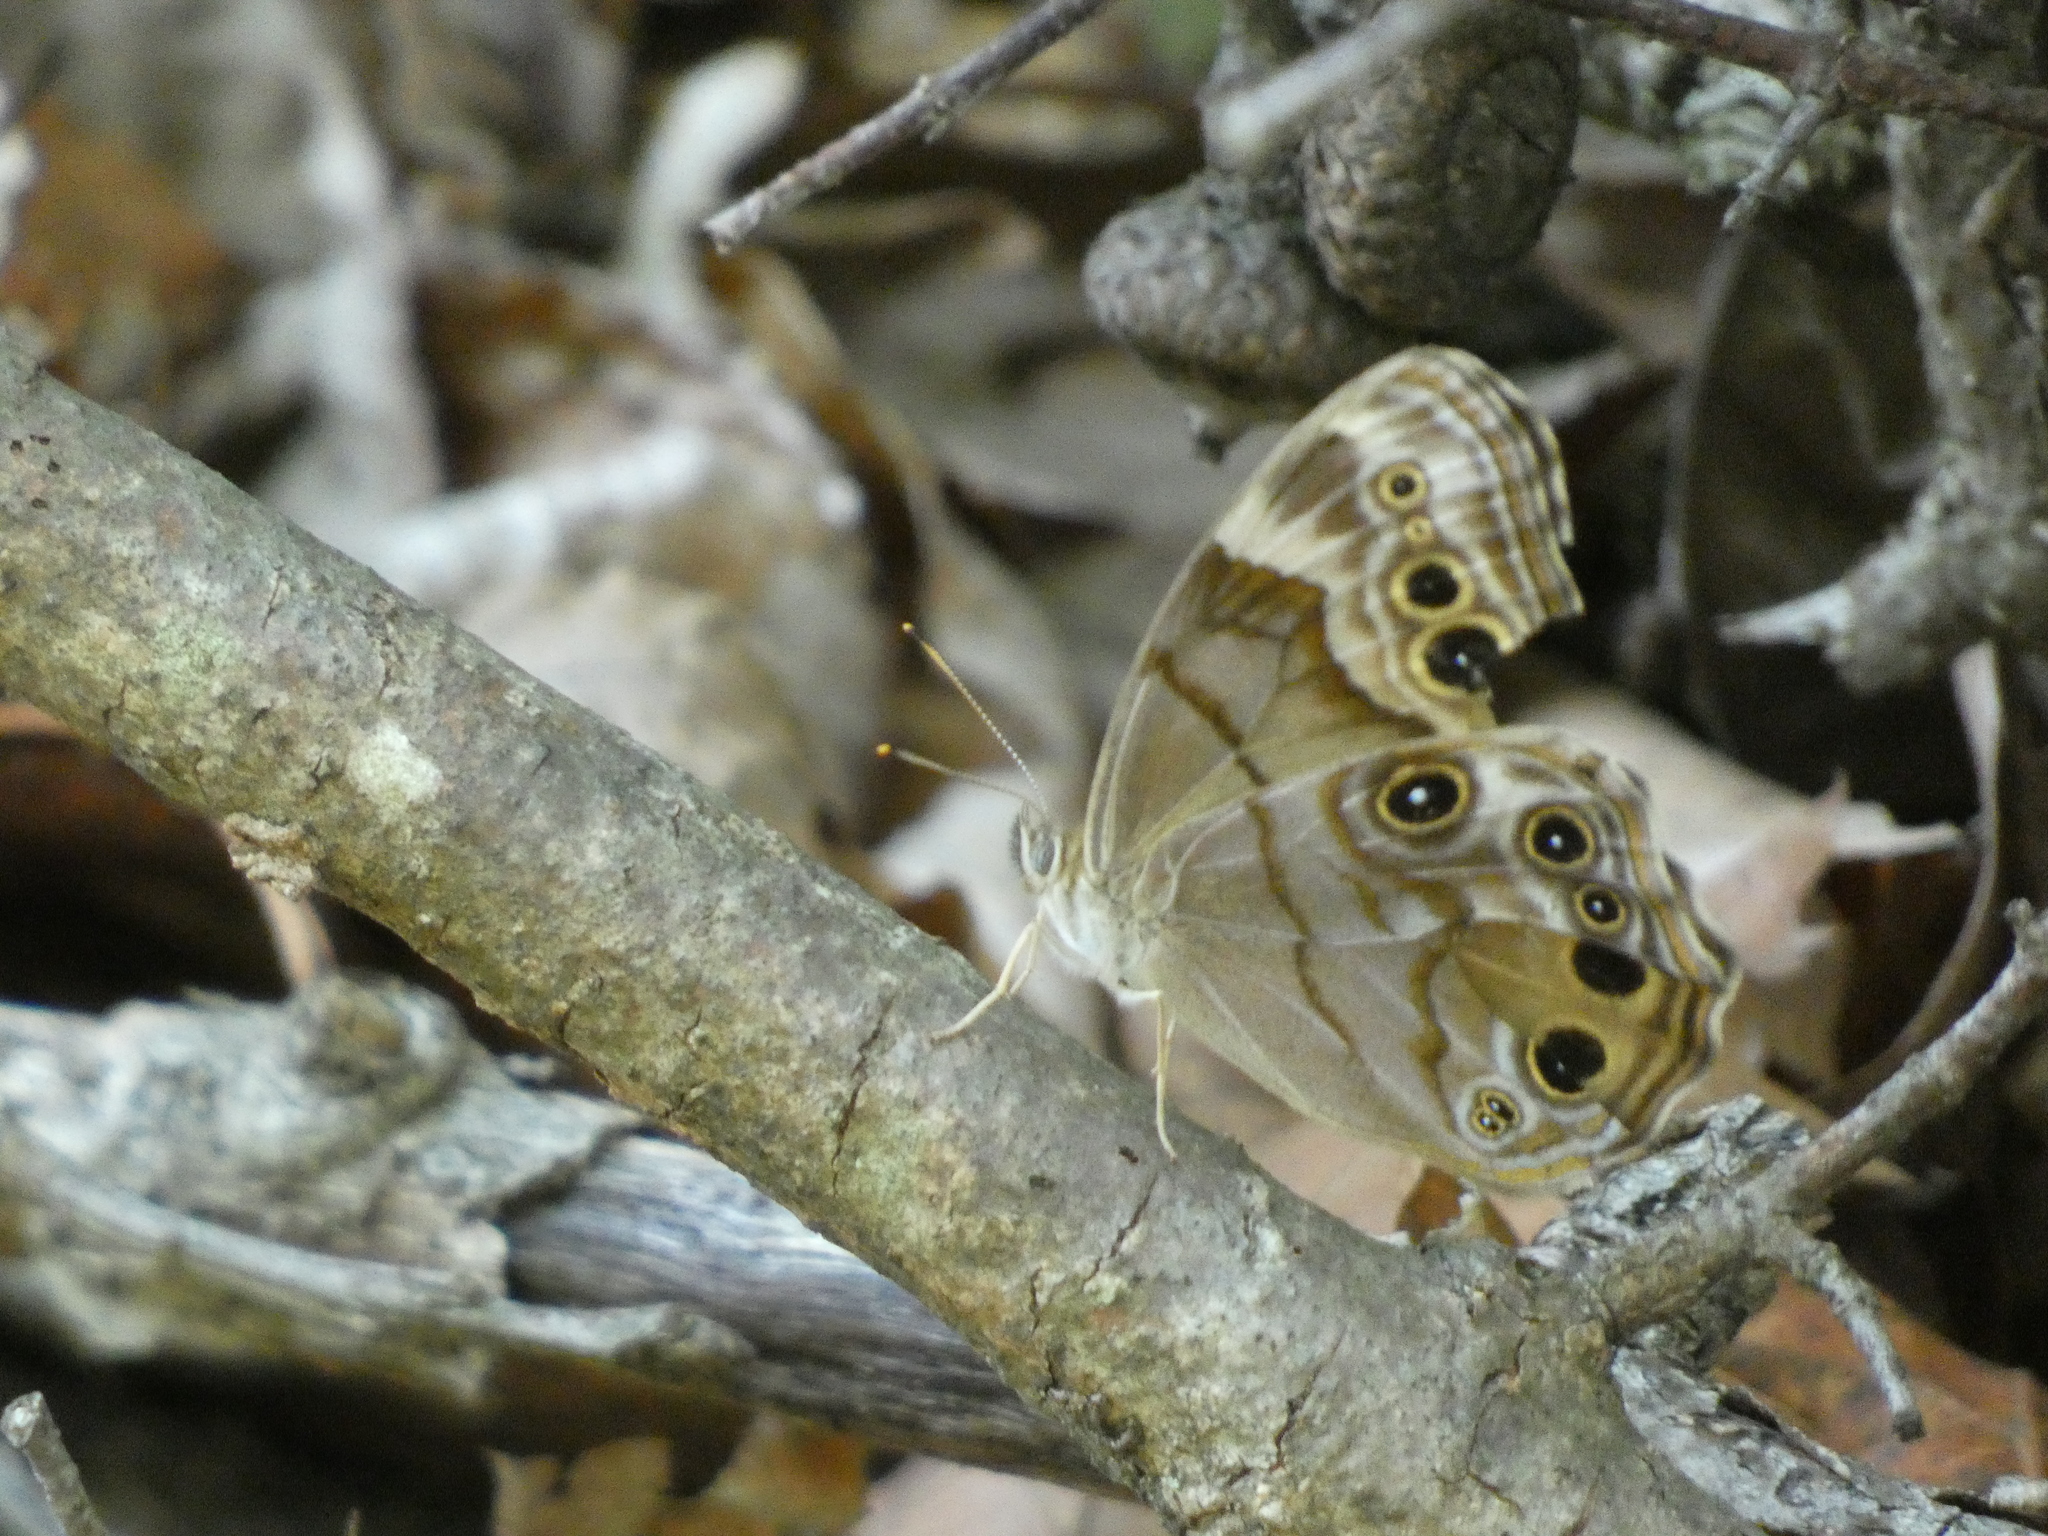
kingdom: Animalia
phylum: Arthropoda
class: Insecta
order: Lepidoptera
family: Nymphalidae
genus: Lethe
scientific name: Lethe anthedon
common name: Northern pearly-eye
